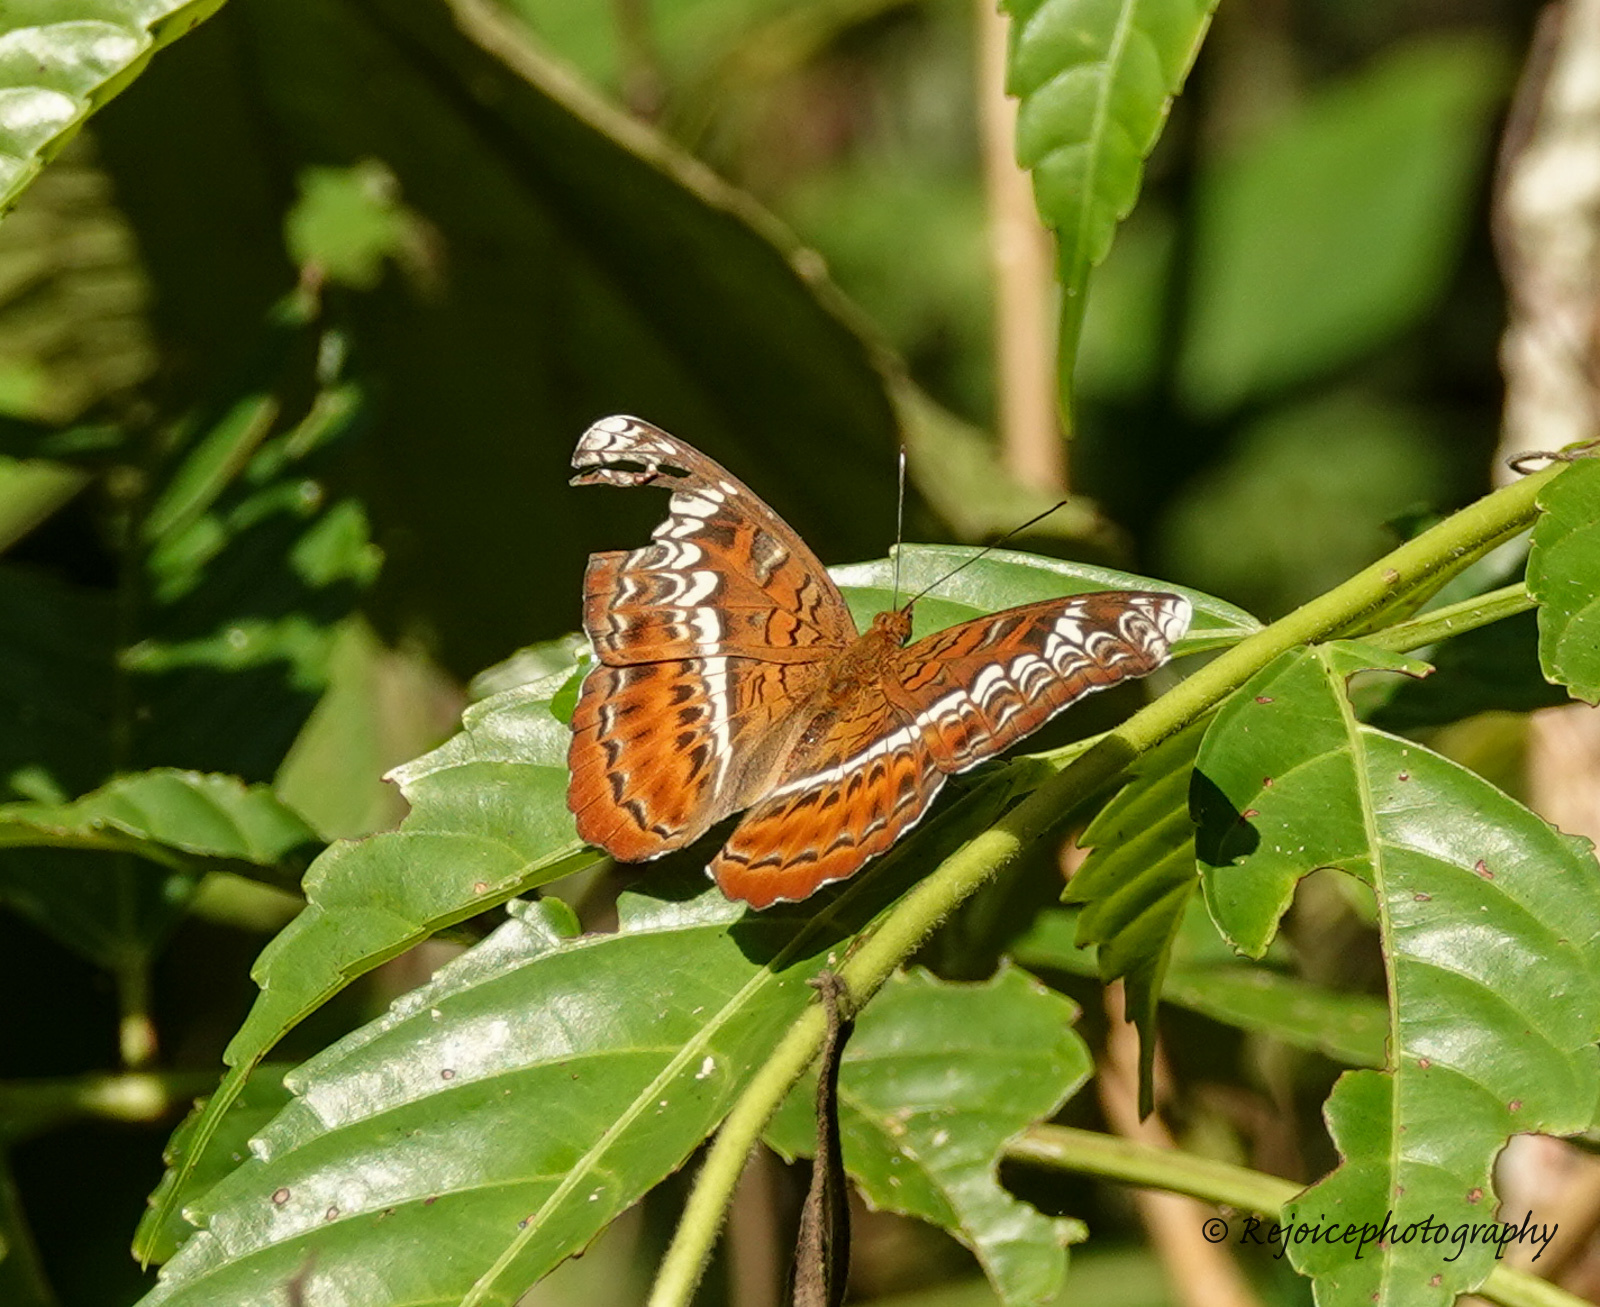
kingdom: Animalia
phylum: Arthropoda
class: Insecta
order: Lepidoptera
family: Nymphalidae
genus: Lebadea
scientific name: Lebadea martha
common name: Knight
